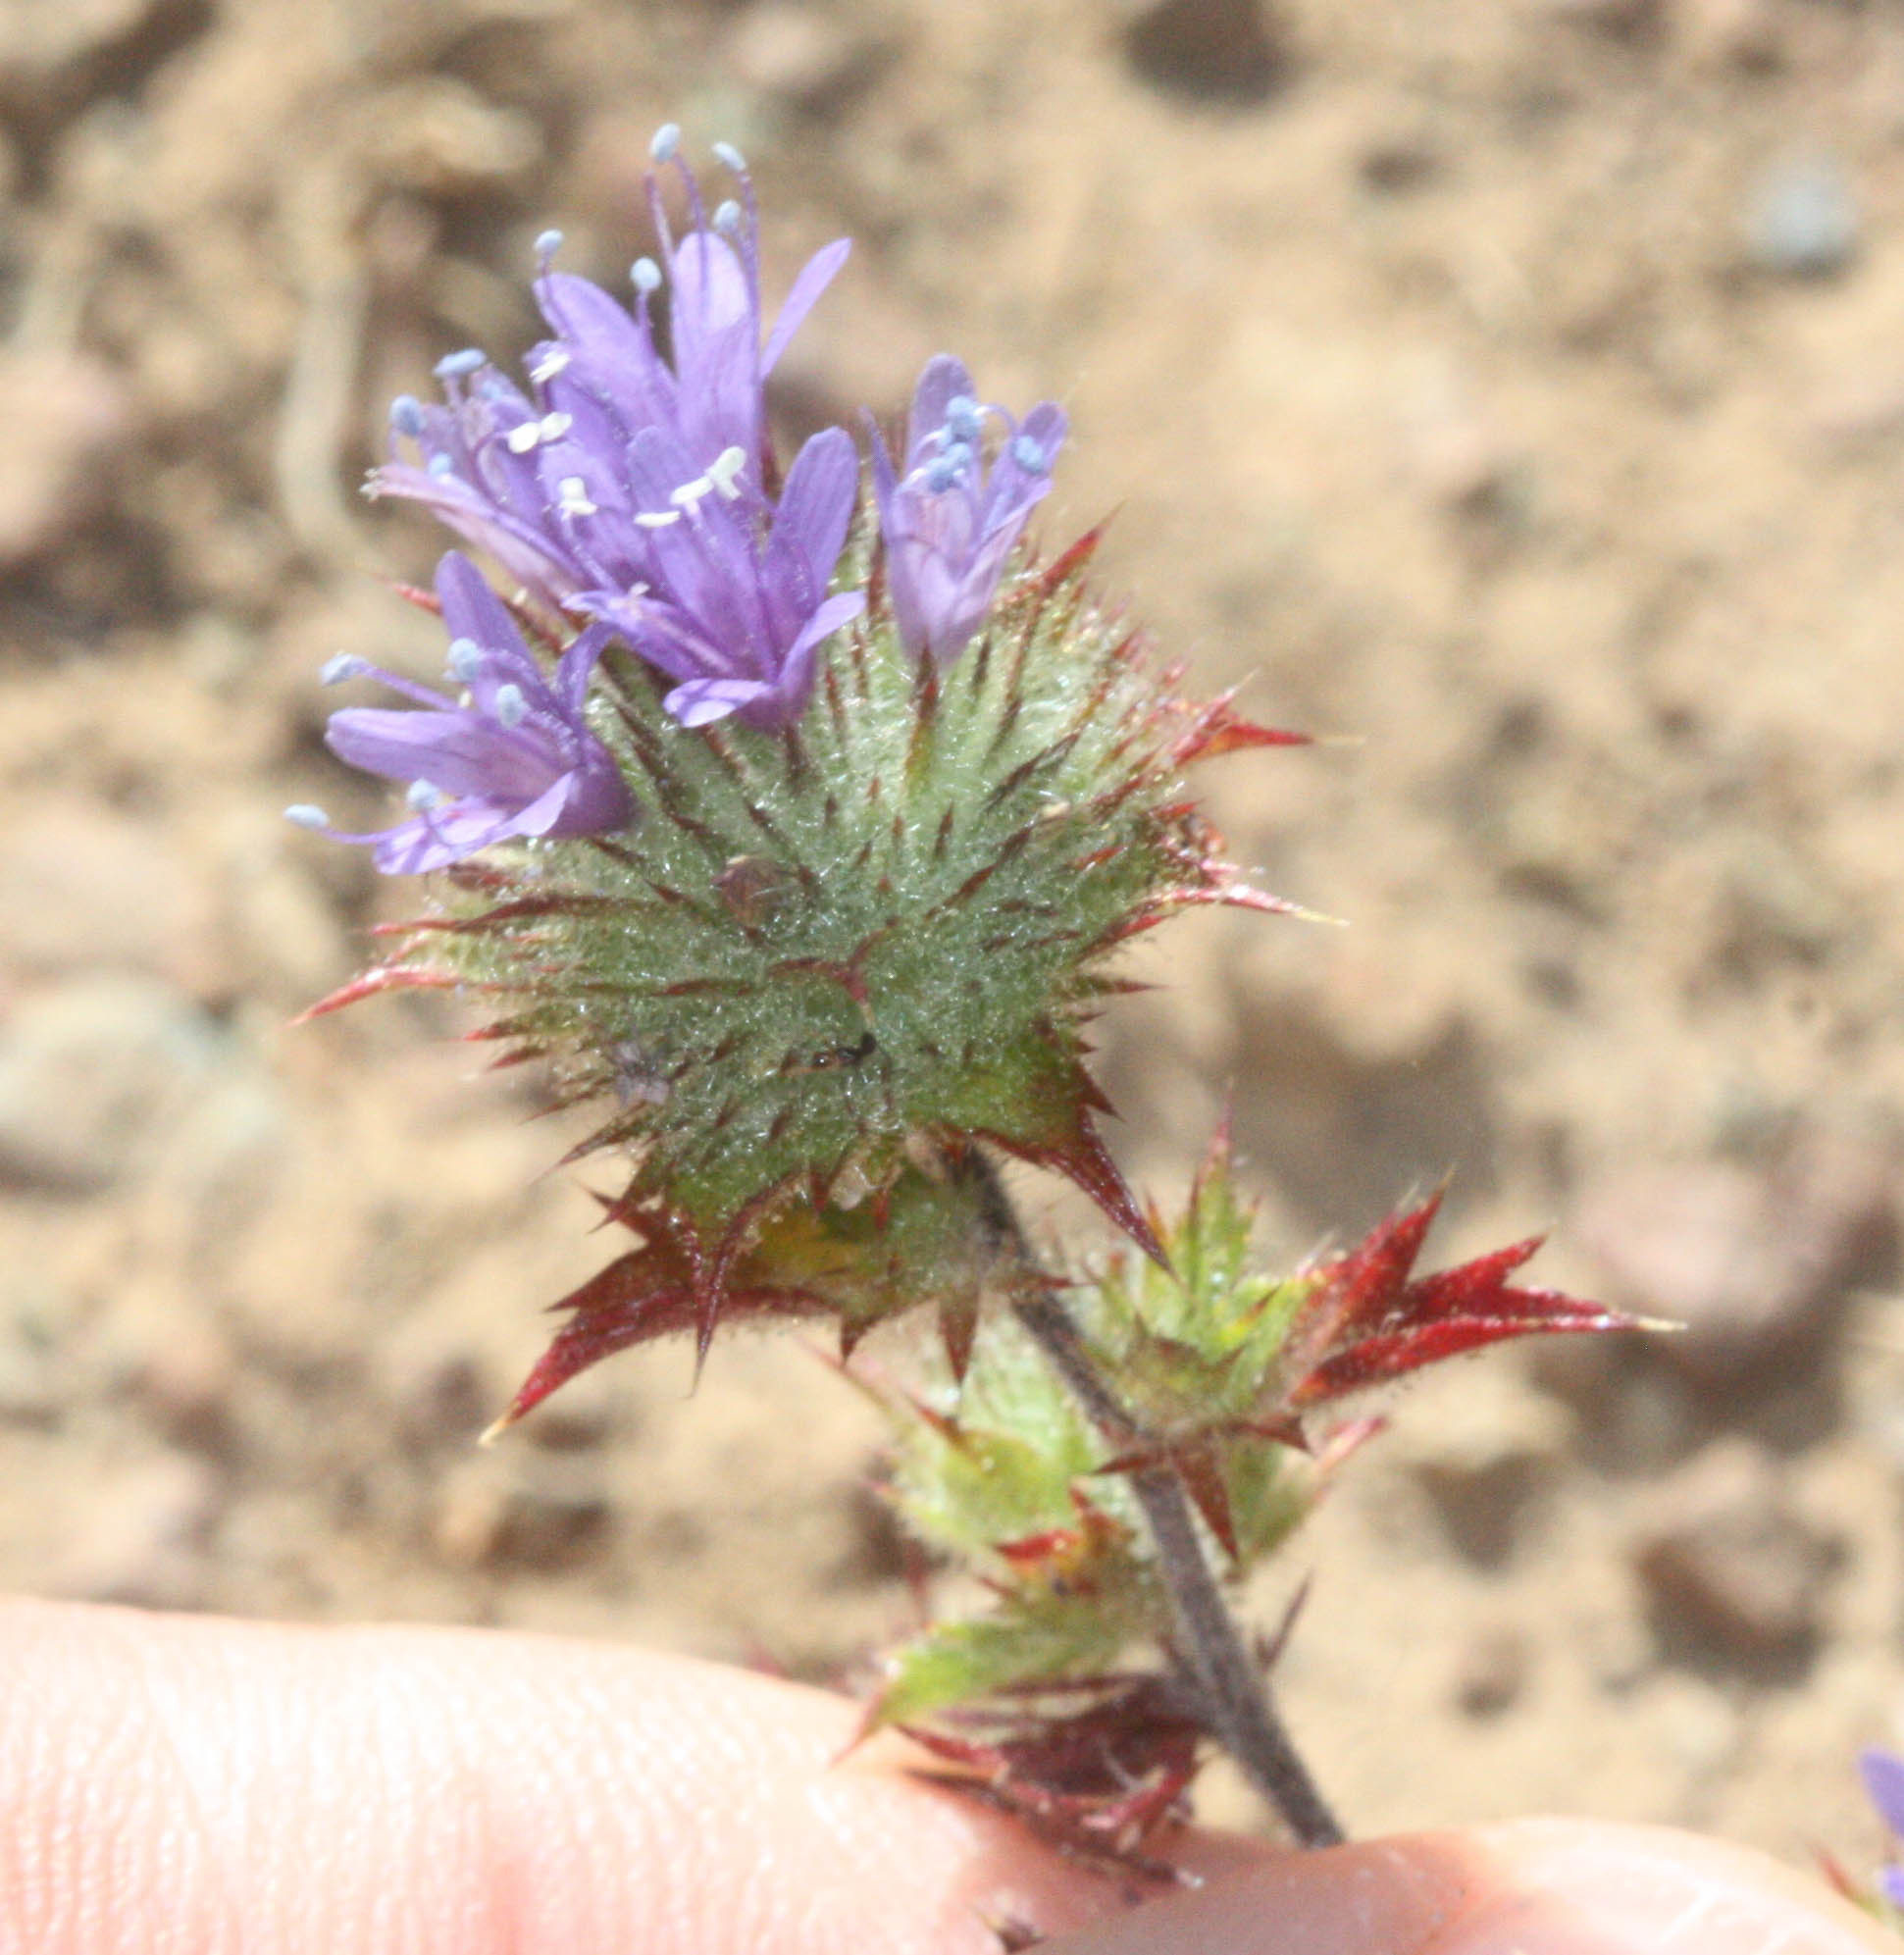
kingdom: Plantae
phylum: Tracheophyta
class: Magnoliopsida
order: Ericales
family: Polemoniaceae
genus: Navarretia
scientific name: Navarretia heterodoxa
